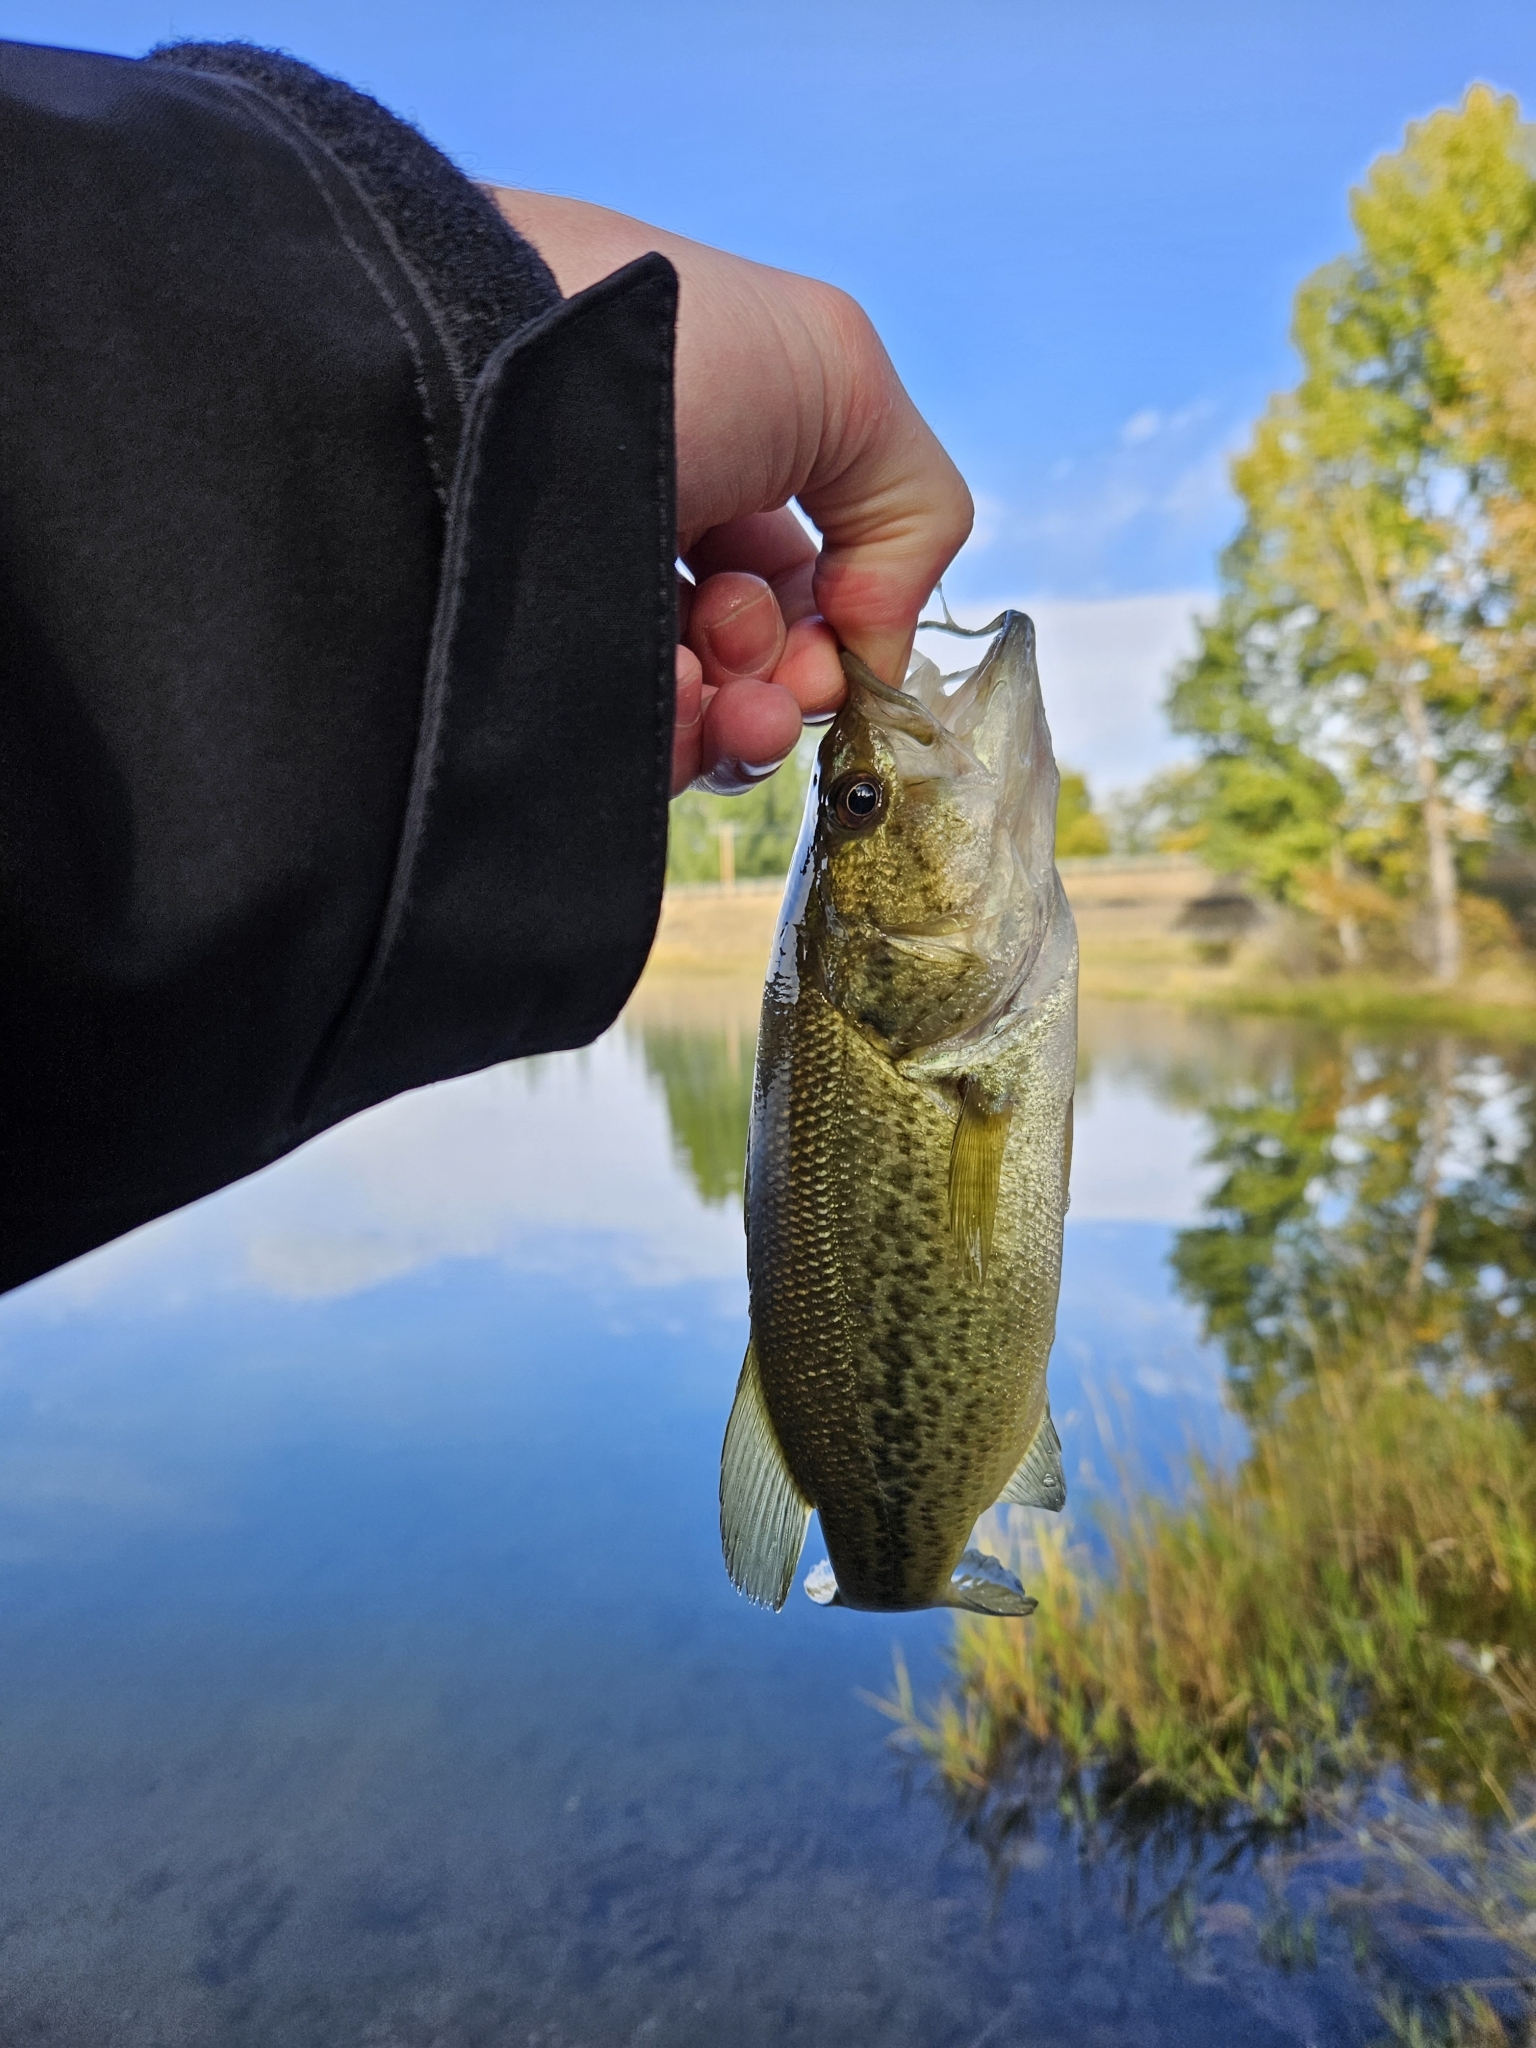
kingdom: Animalia
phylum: Chordata
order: Perciformes
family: Centrarchidae
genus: Micropterus
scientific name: Micropterus
